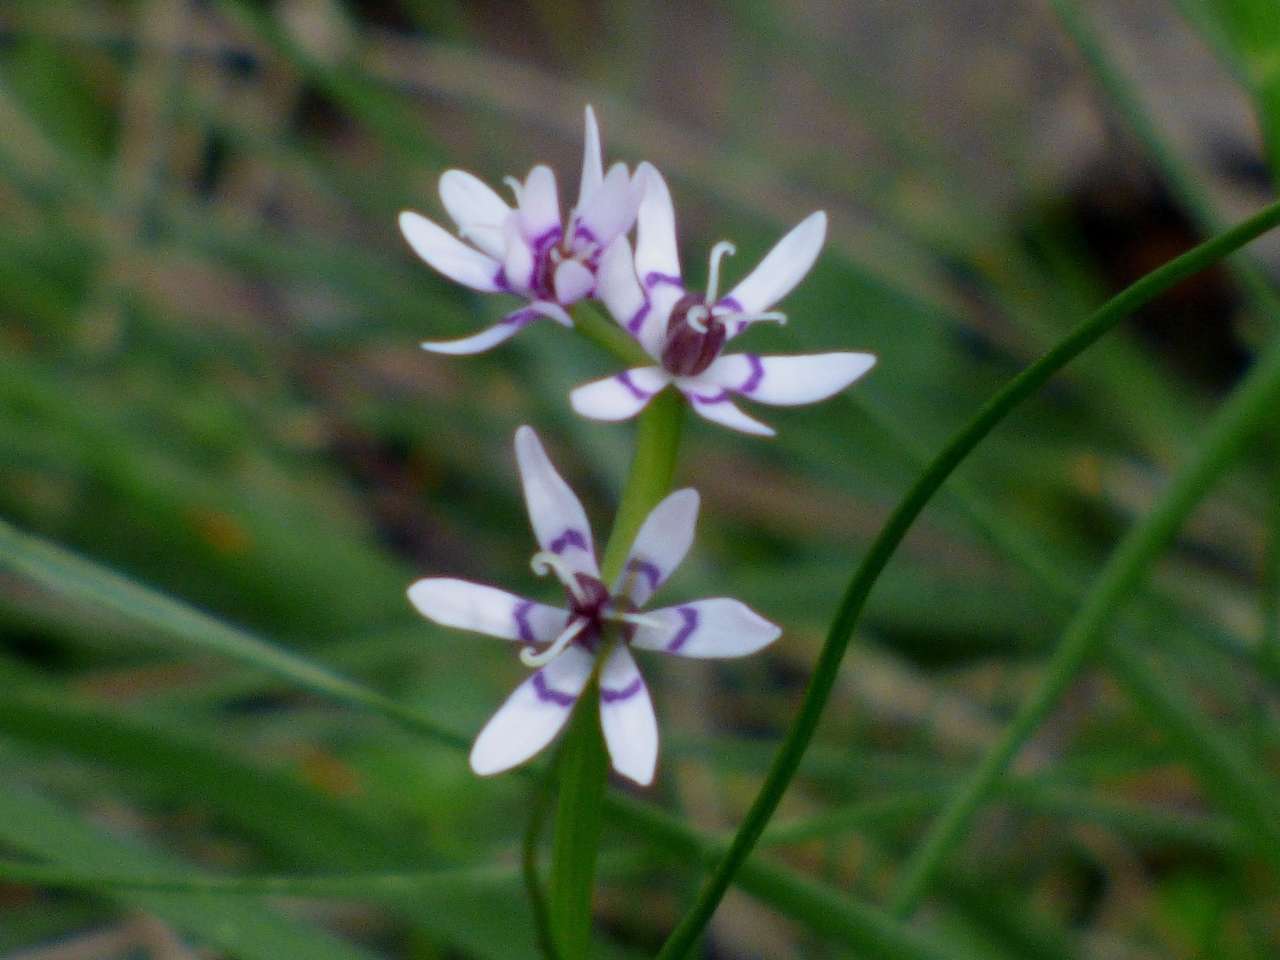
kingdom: Plantae
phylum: Tracheophyta
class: Liliopsida
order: Liliales
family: Colchicaceae
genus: Wurmbea
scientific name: Wurmbea dioica
